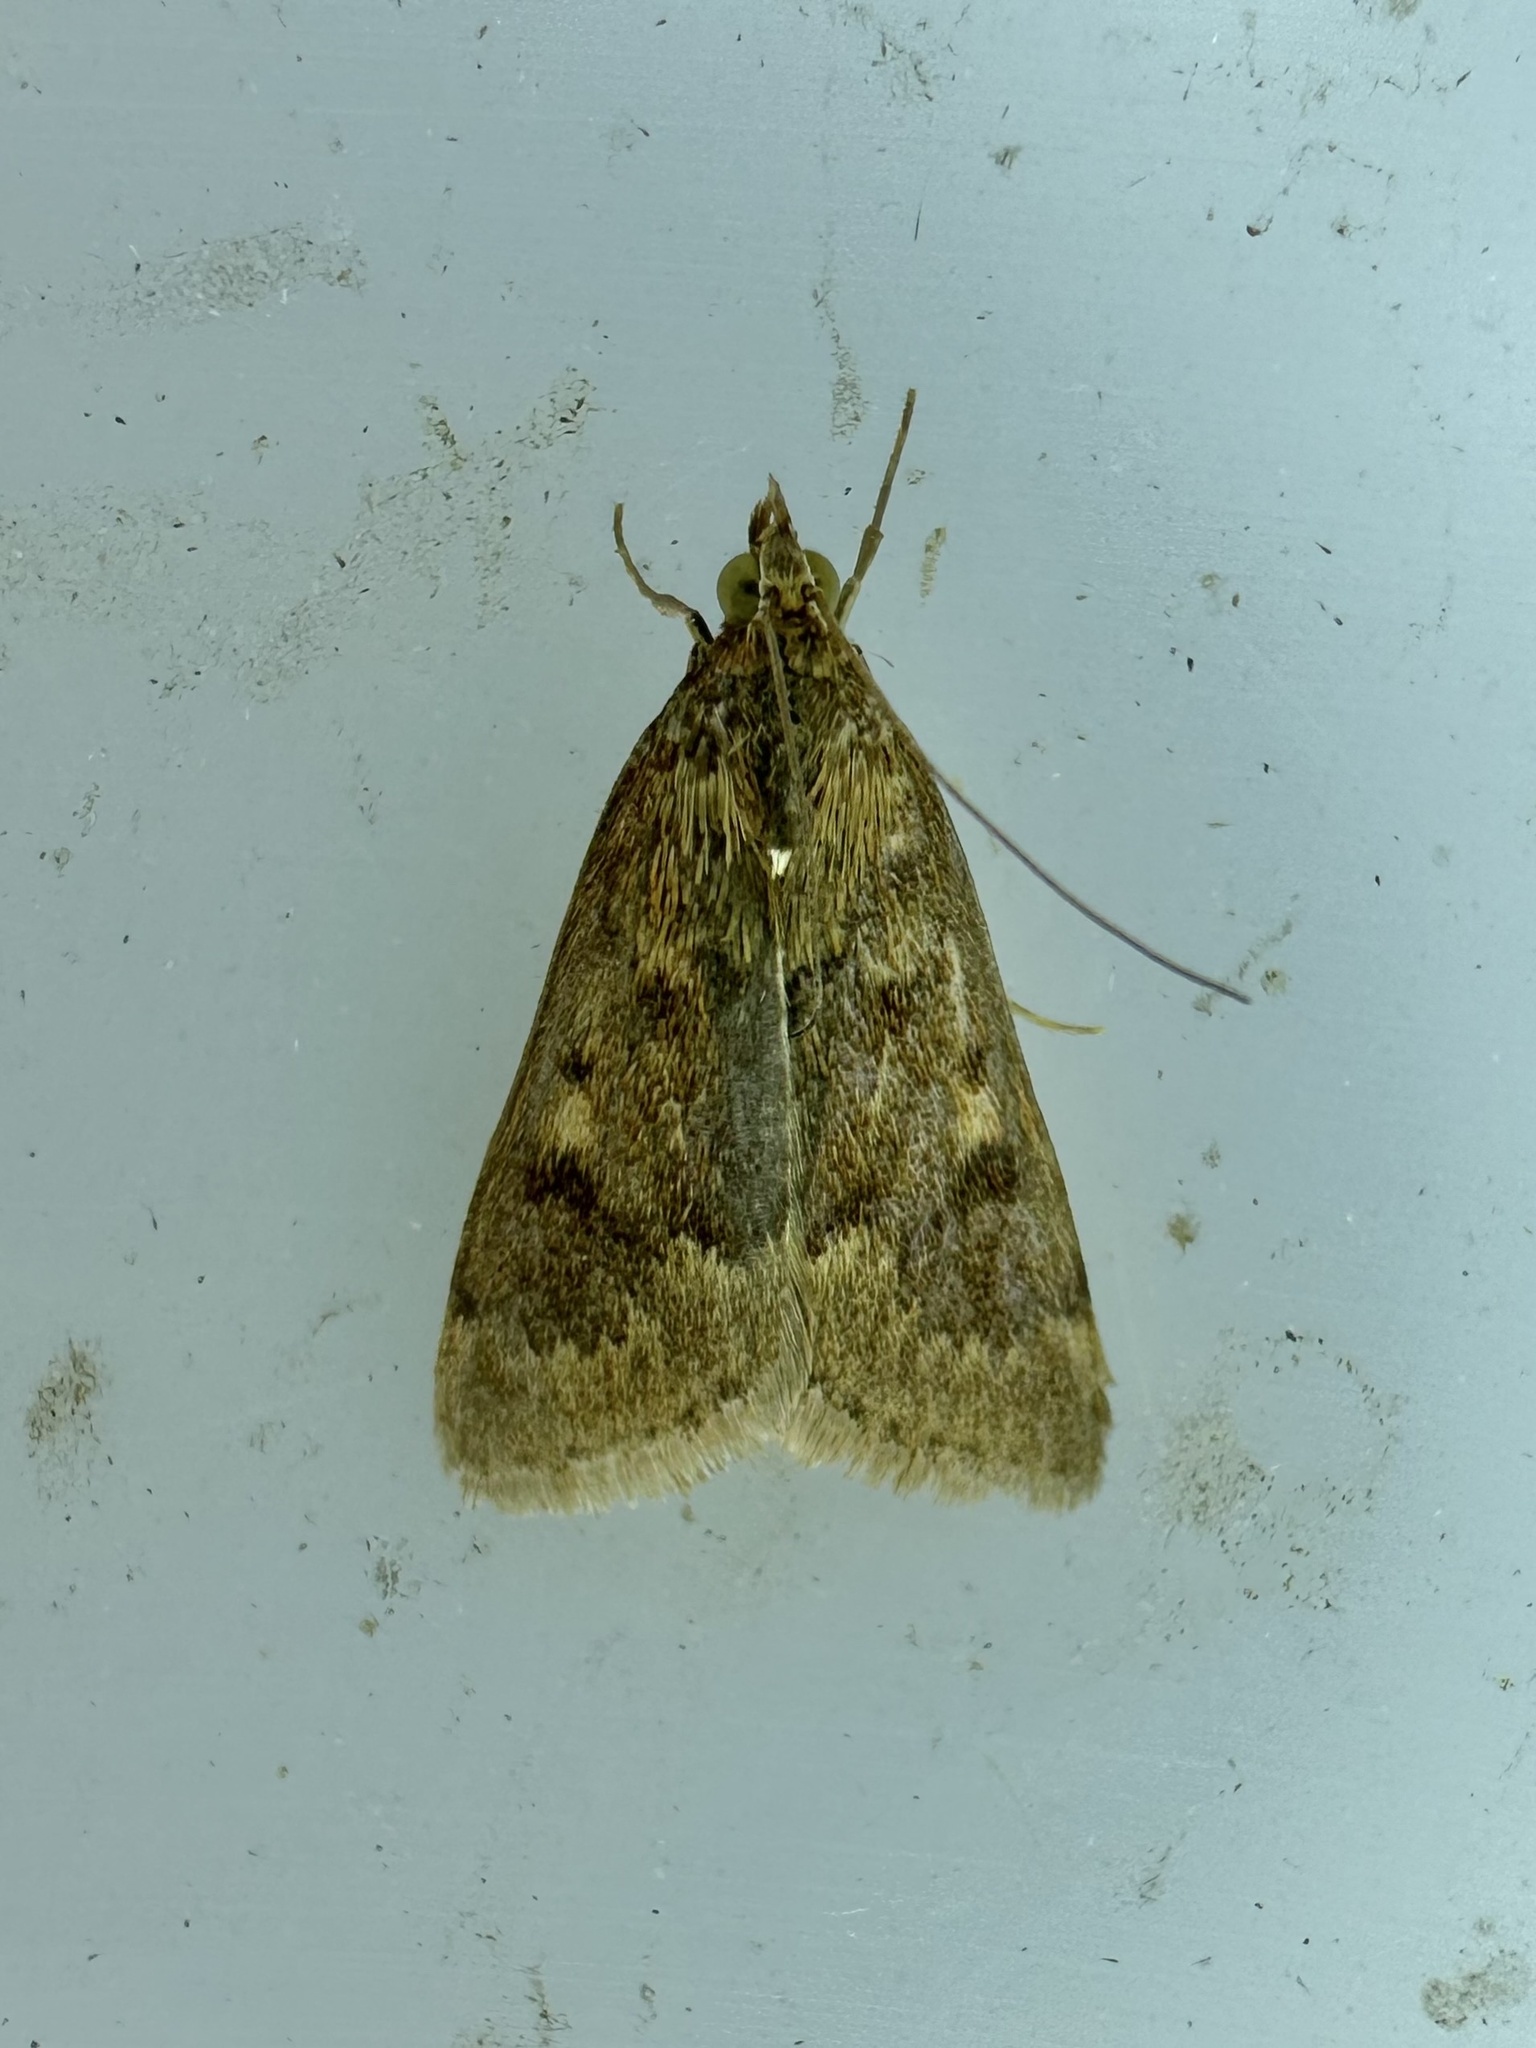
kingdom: Animalia
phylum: Arthropoda
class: Insecta
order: Lepidoptera
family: Crambidae
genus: Achyra
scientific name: Achyra rantalis
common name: Garden webworm
